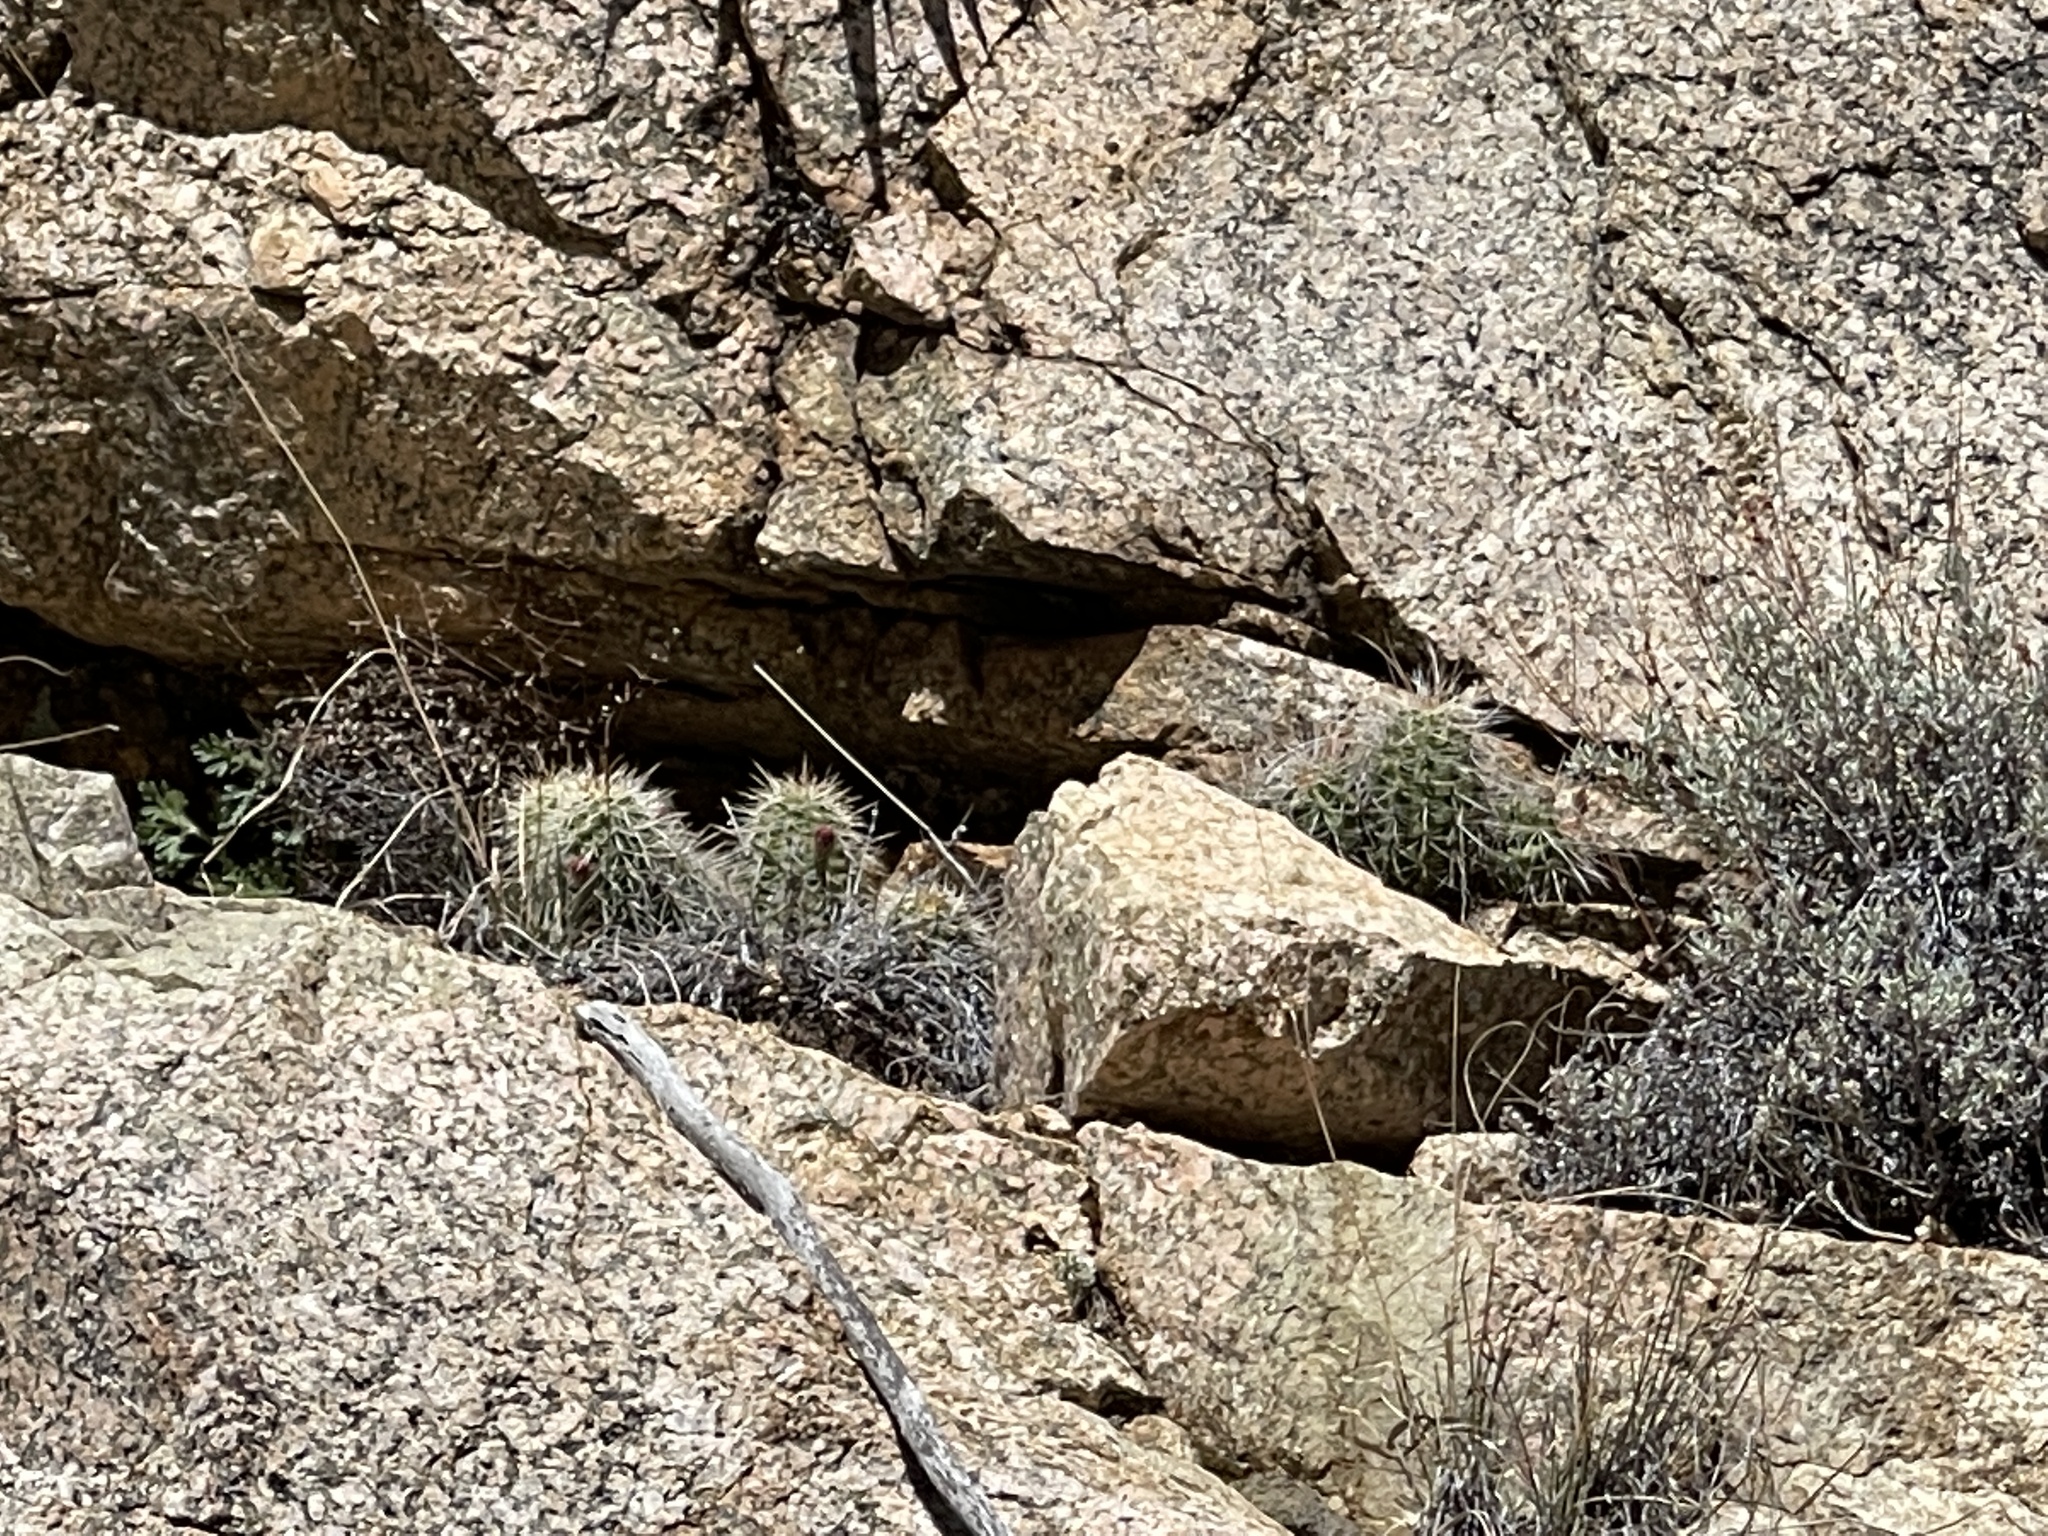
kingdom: Plantae
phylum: Tracheophyta
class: Magnoliopsida
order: Caryophyllales
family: Cactaceae
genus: Echinocereus
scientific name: Echinocereus bakeri
